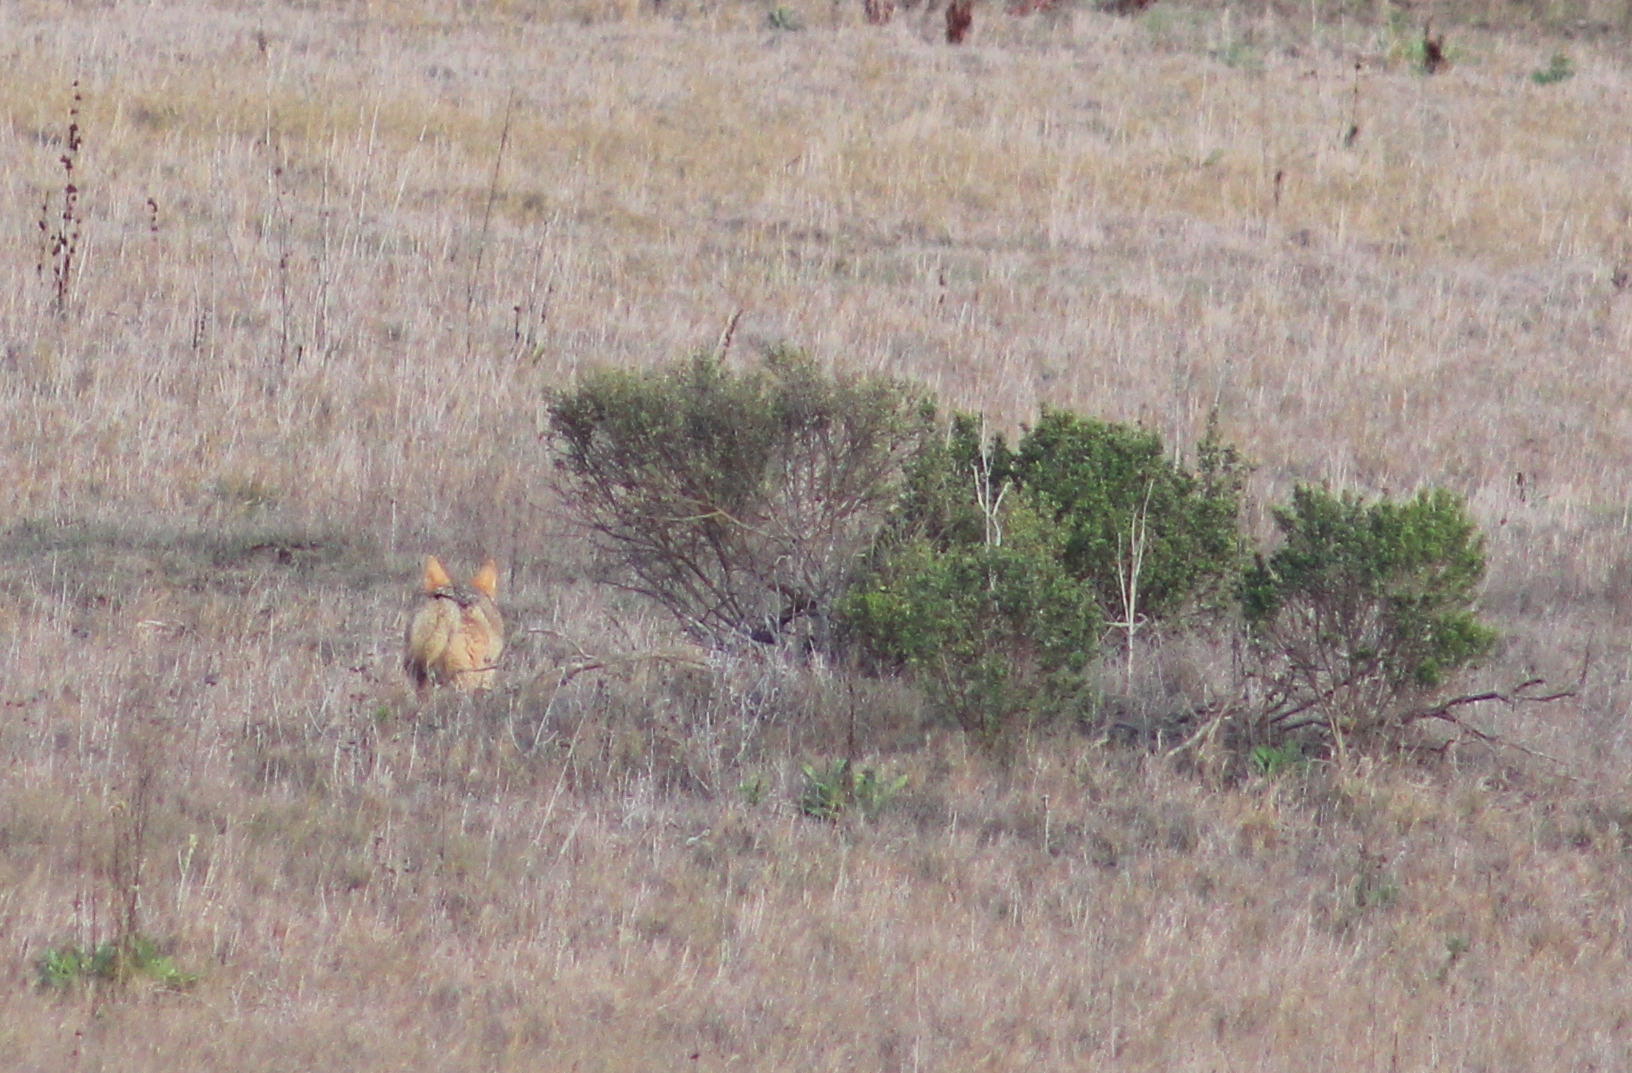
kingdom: Animalia
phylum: Chordata
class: Mammalia
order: Carnivora
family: Canidae
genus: Canis
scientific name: Canis latrans
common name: Coyote
